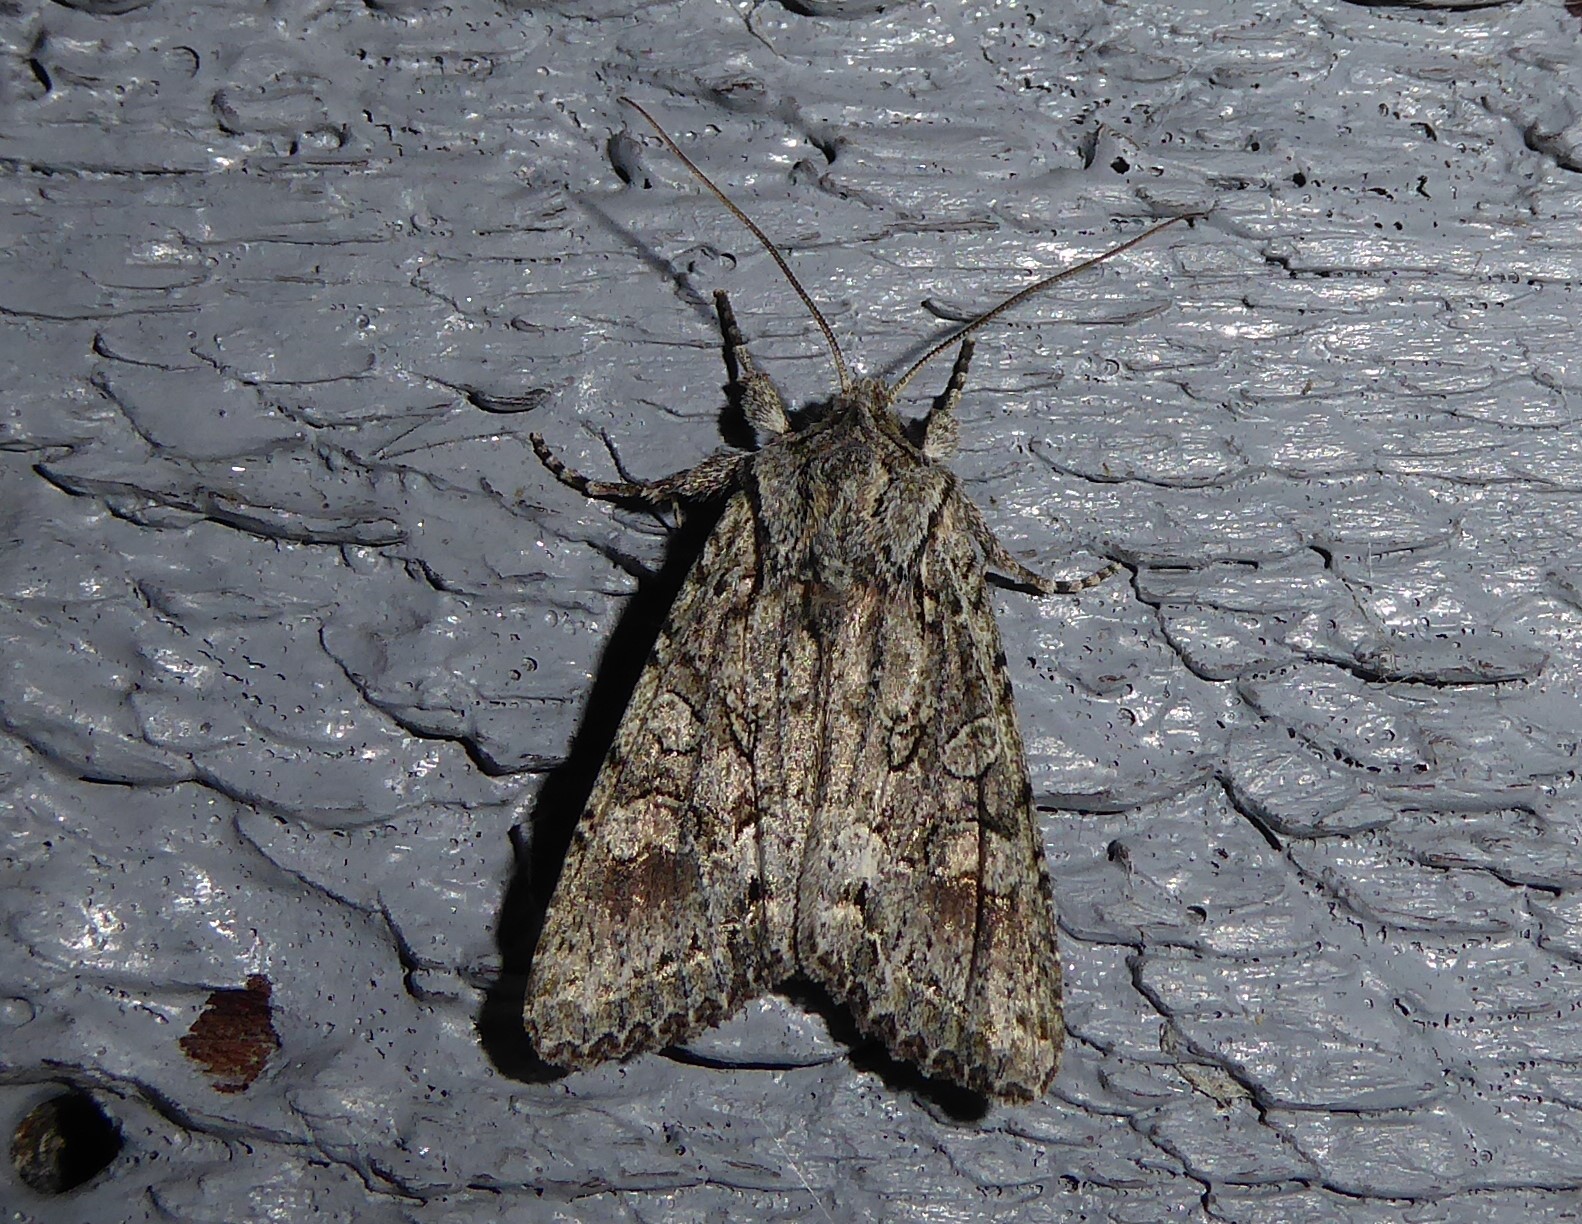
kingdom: Animalia
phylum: Arthropoda
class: Insecta
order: Lepidoptera
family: Noctuidae
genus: Ichneutica
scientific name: Ichneutica mutans
